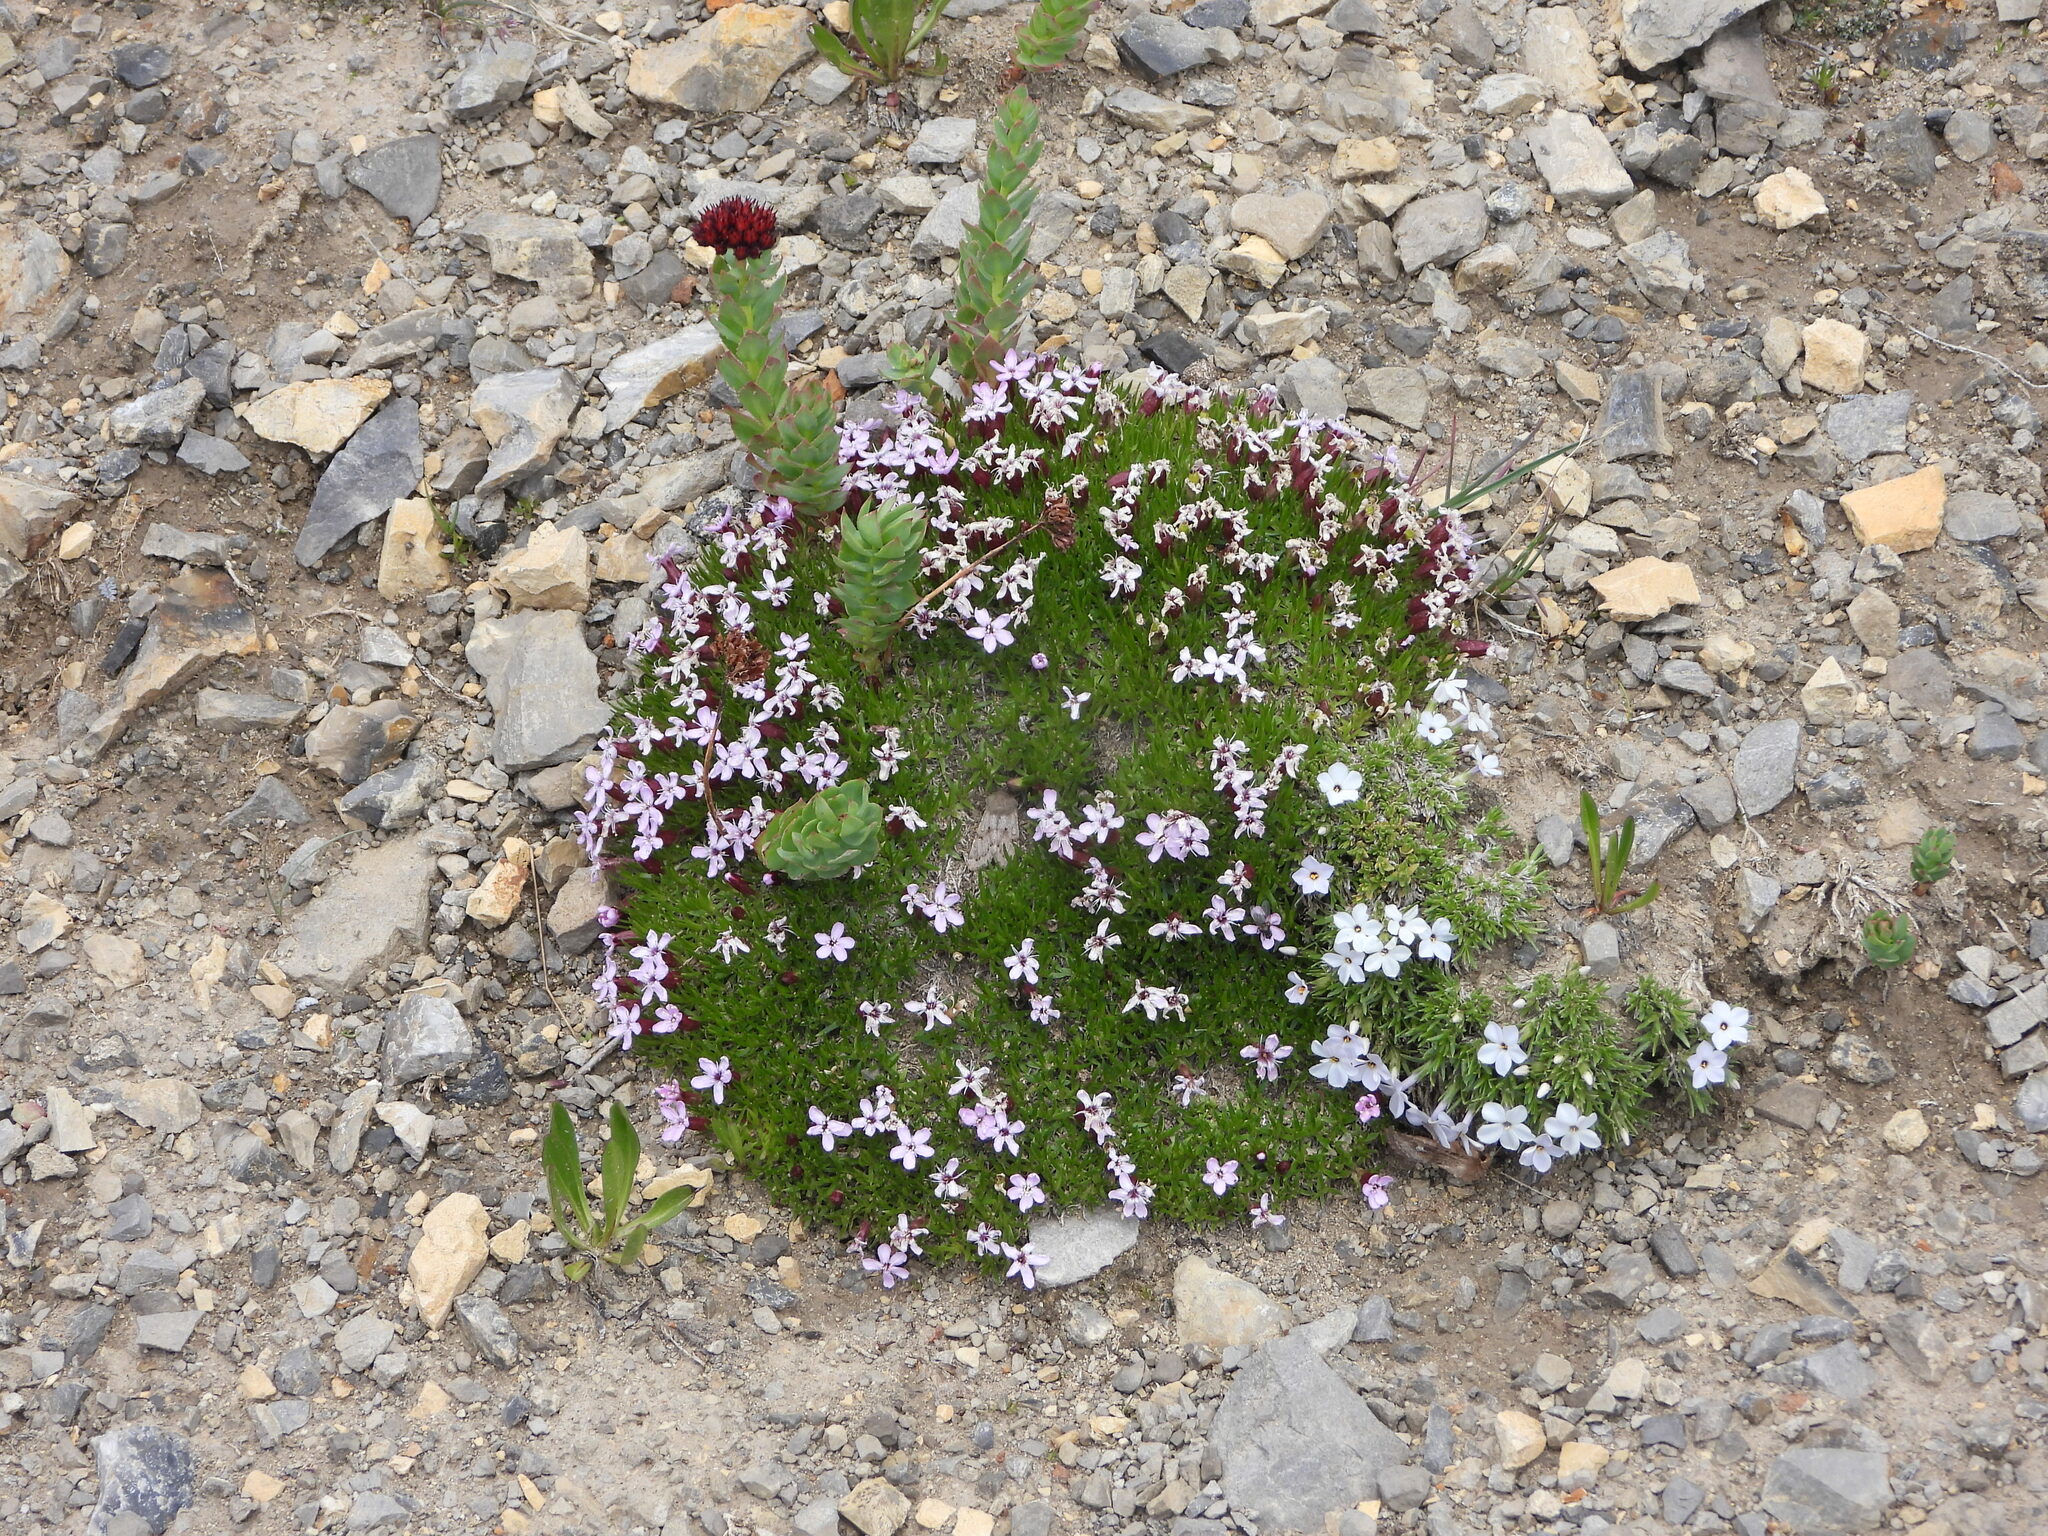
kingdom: Plantae
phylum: Tracheophyta
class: Magnoliopsida
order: Caryophyllales
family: Caryophyllaceae
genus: Silene
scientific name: Silene acaulis
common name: Moss campion
